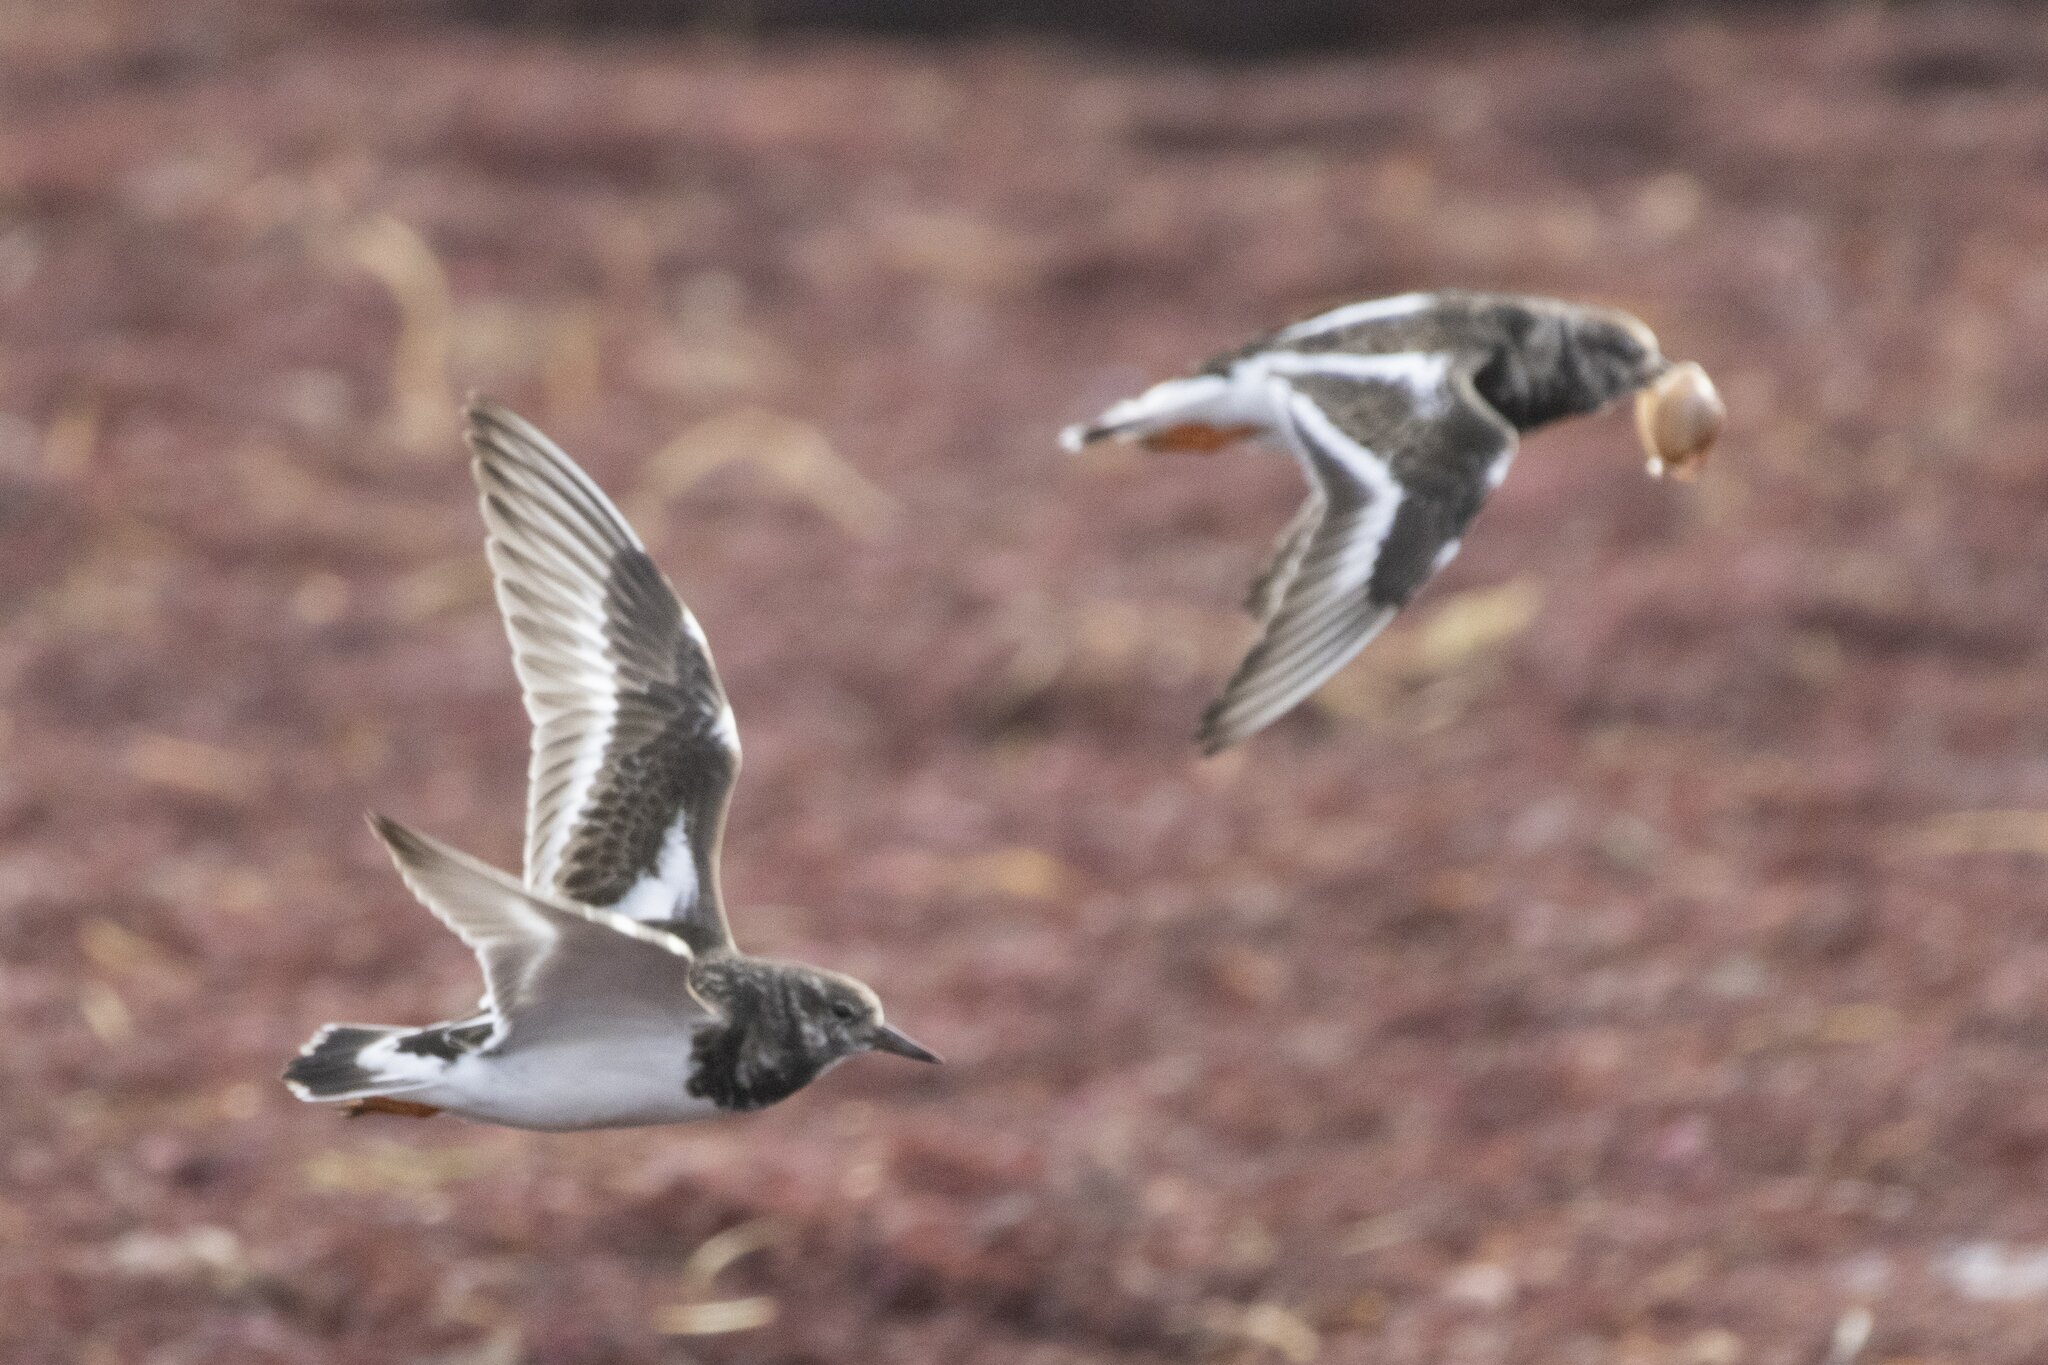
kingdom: Animalia
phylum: Chordata
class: Aves
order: Charadriiformes
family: Scolopacidae
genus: Arenaria
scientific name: Arenaria interpres
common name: Ruddy turnstone
